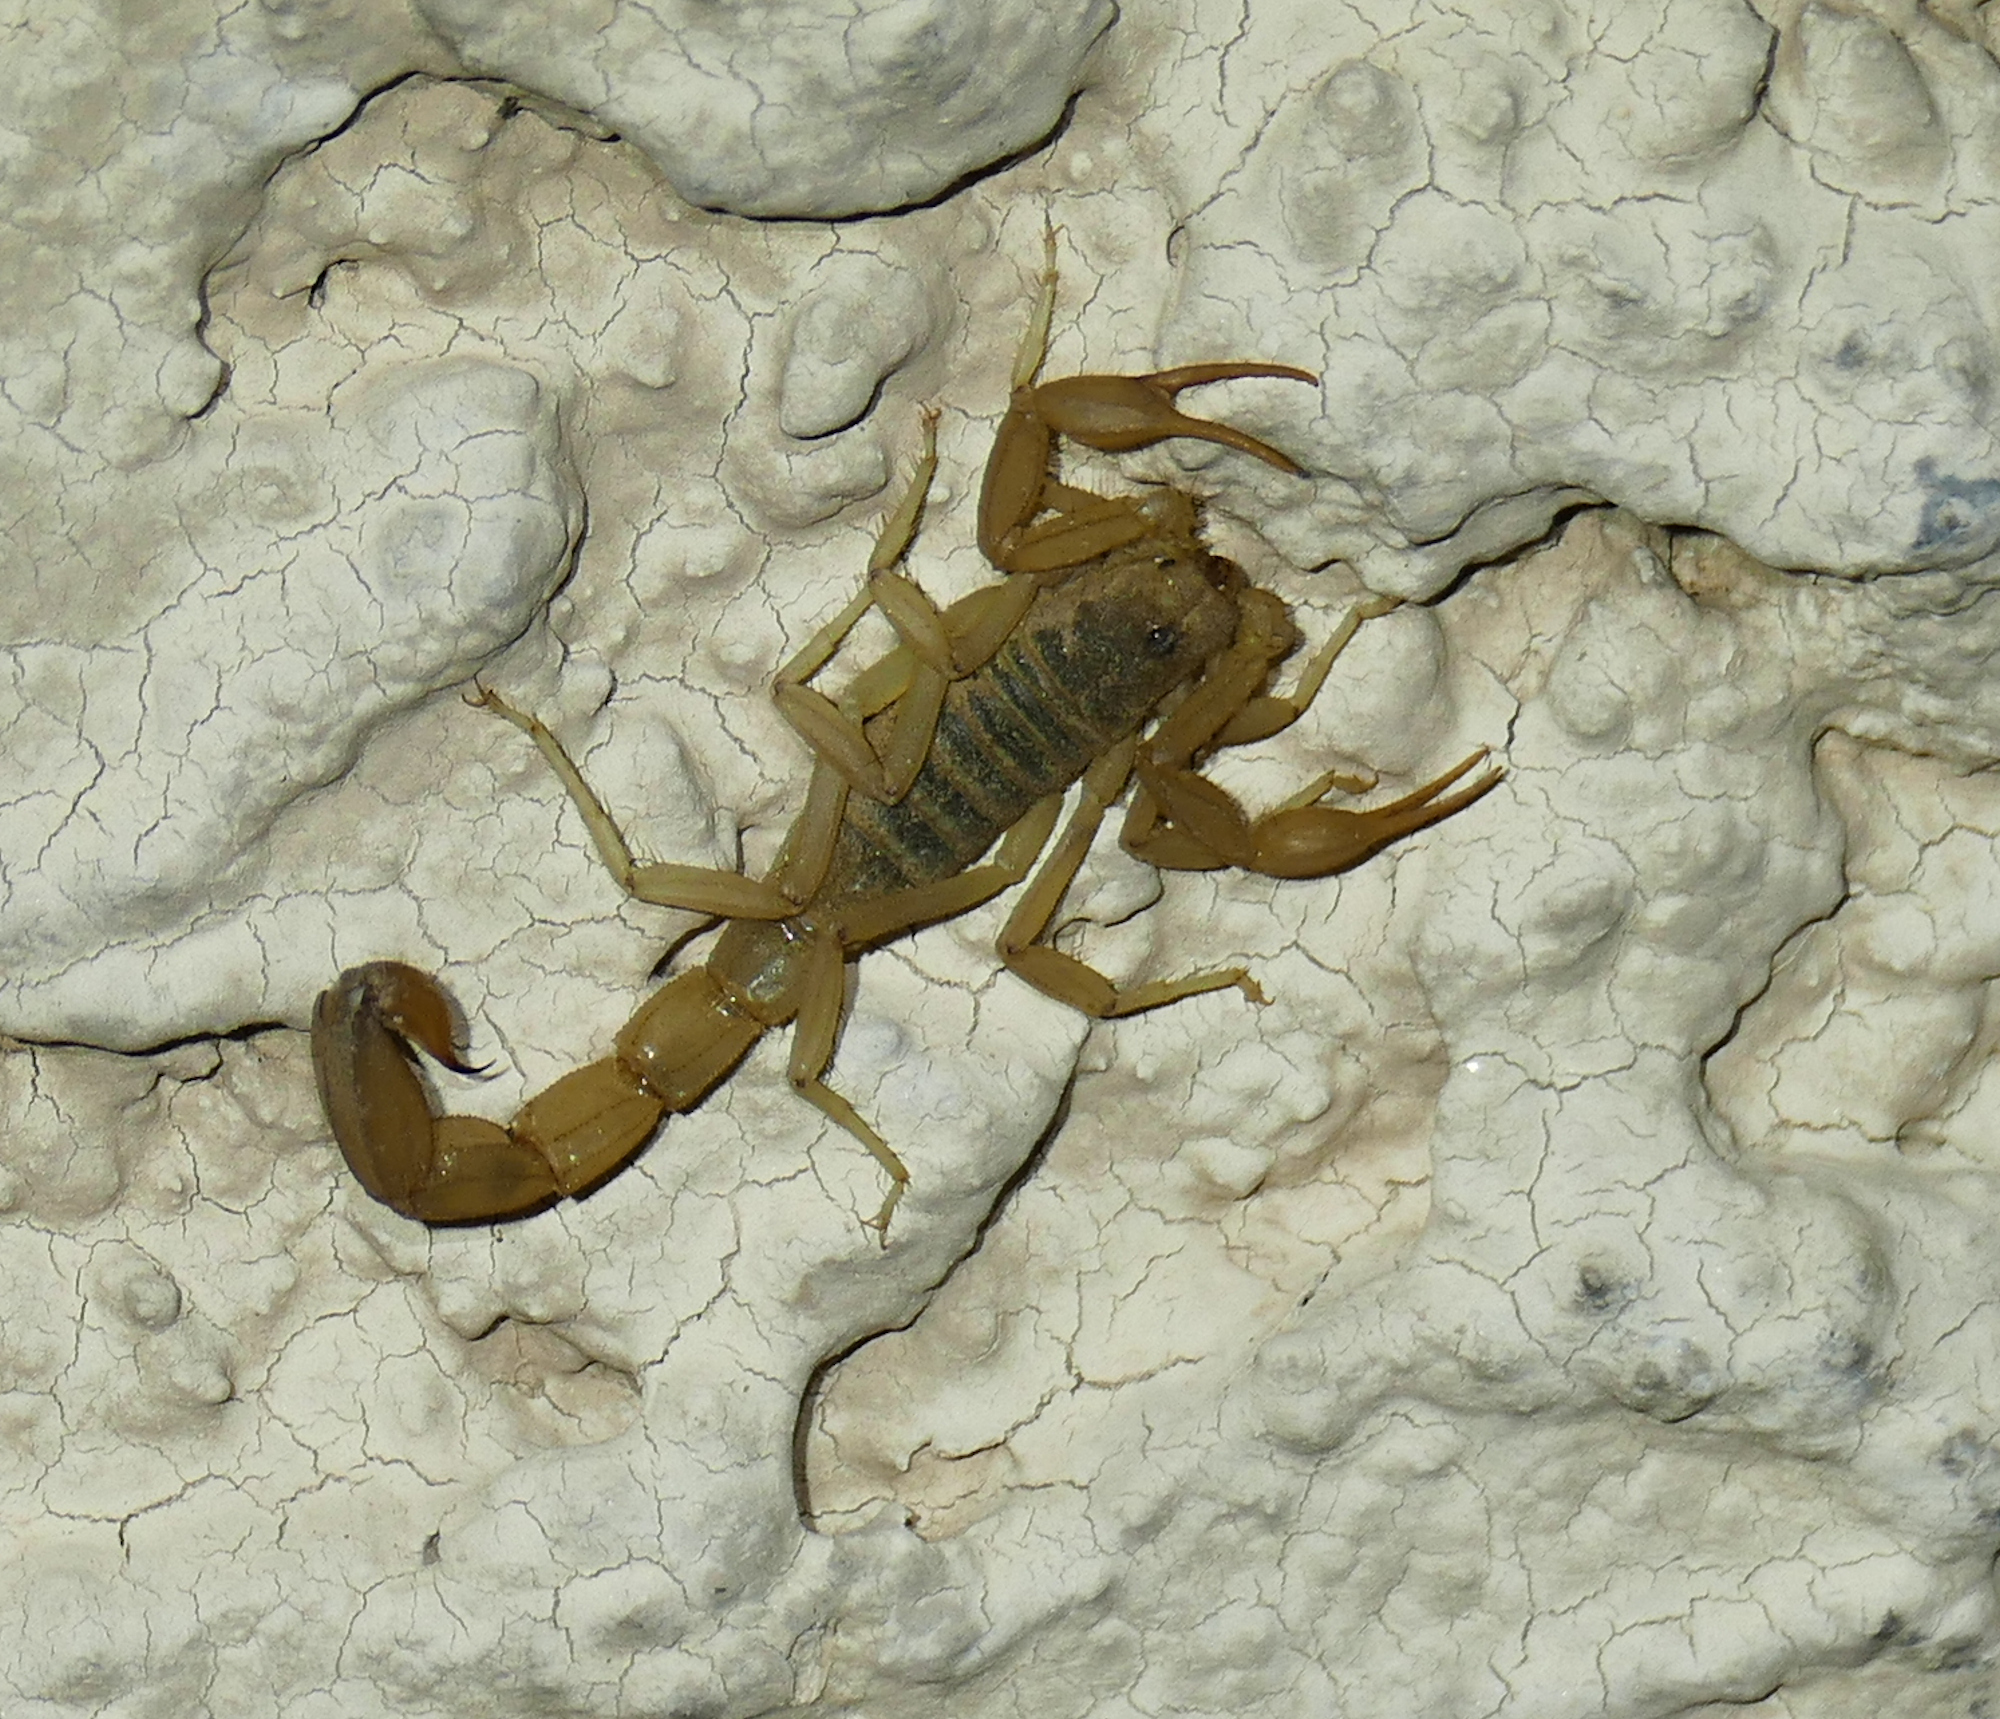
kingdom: Animalia
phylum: Arthropoda
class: Arachnida
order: Scorpiones
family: Vaejovidae
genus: Paravaejovis
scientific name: Paravaejovis spinigerus
